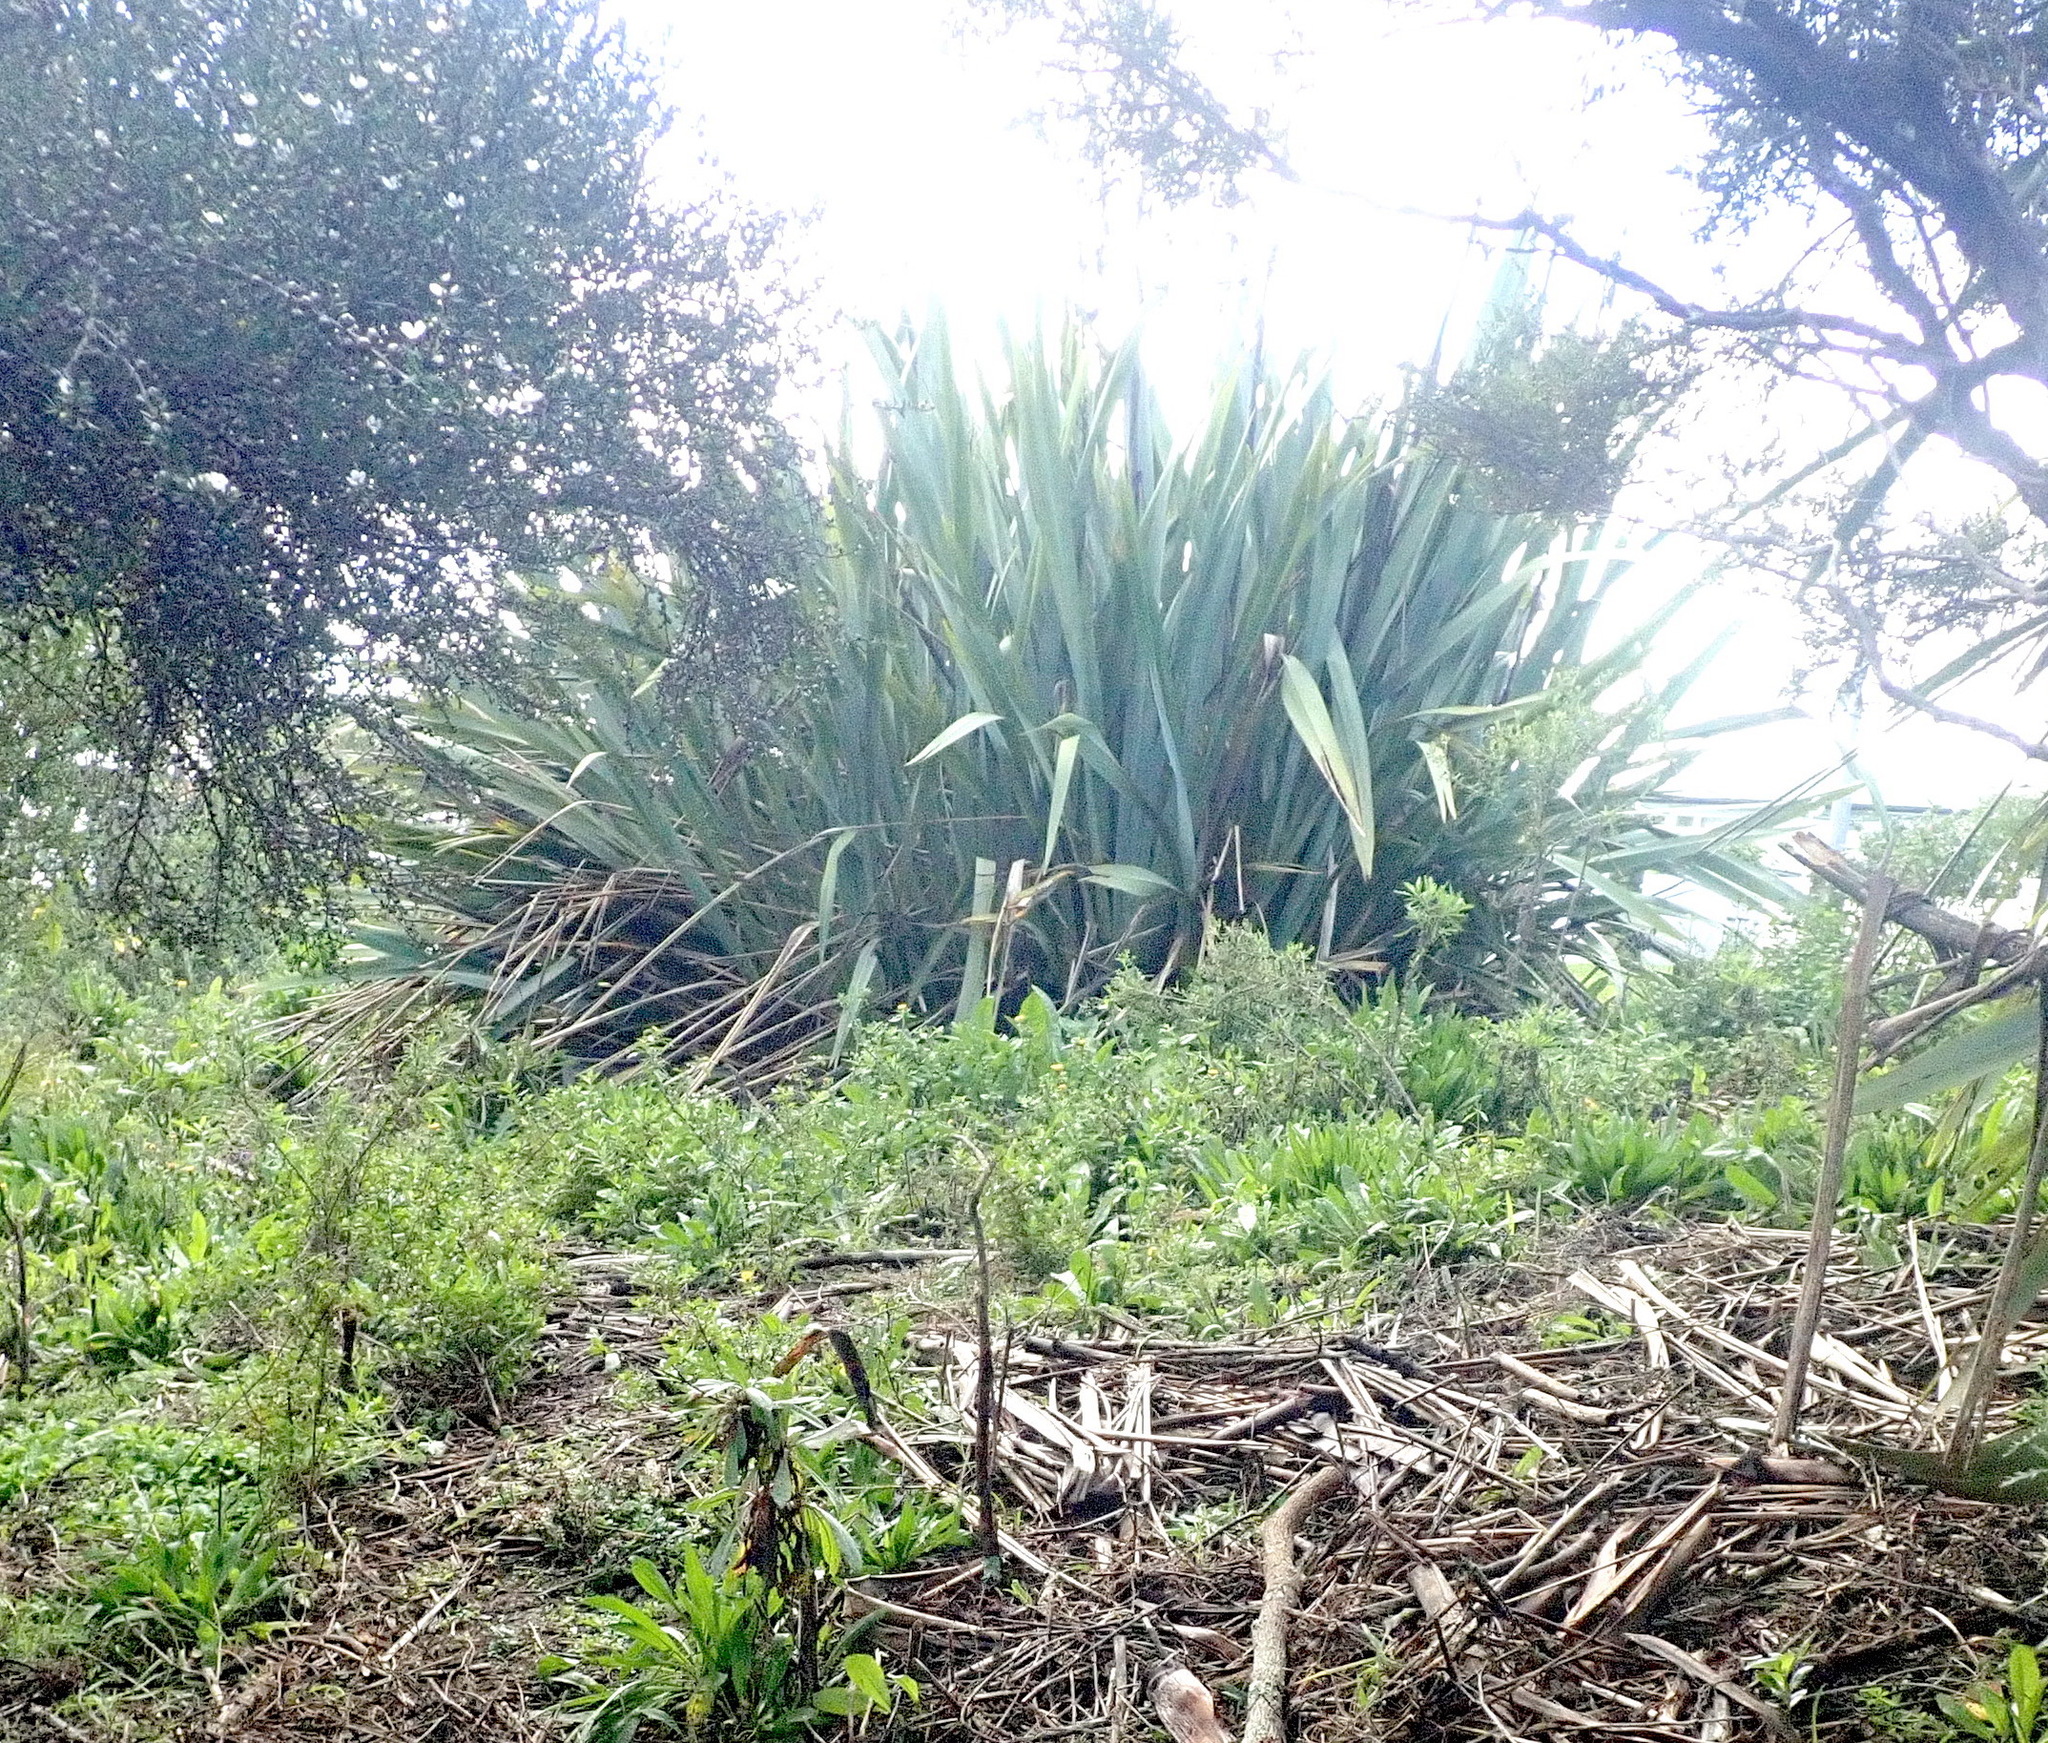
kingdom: Plantae
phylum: Tracheophyta
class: Liliopsida
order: Asparagales
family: Asphodelaceae
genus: Phormium
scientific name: Phormium tenax
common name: New zealand flax
